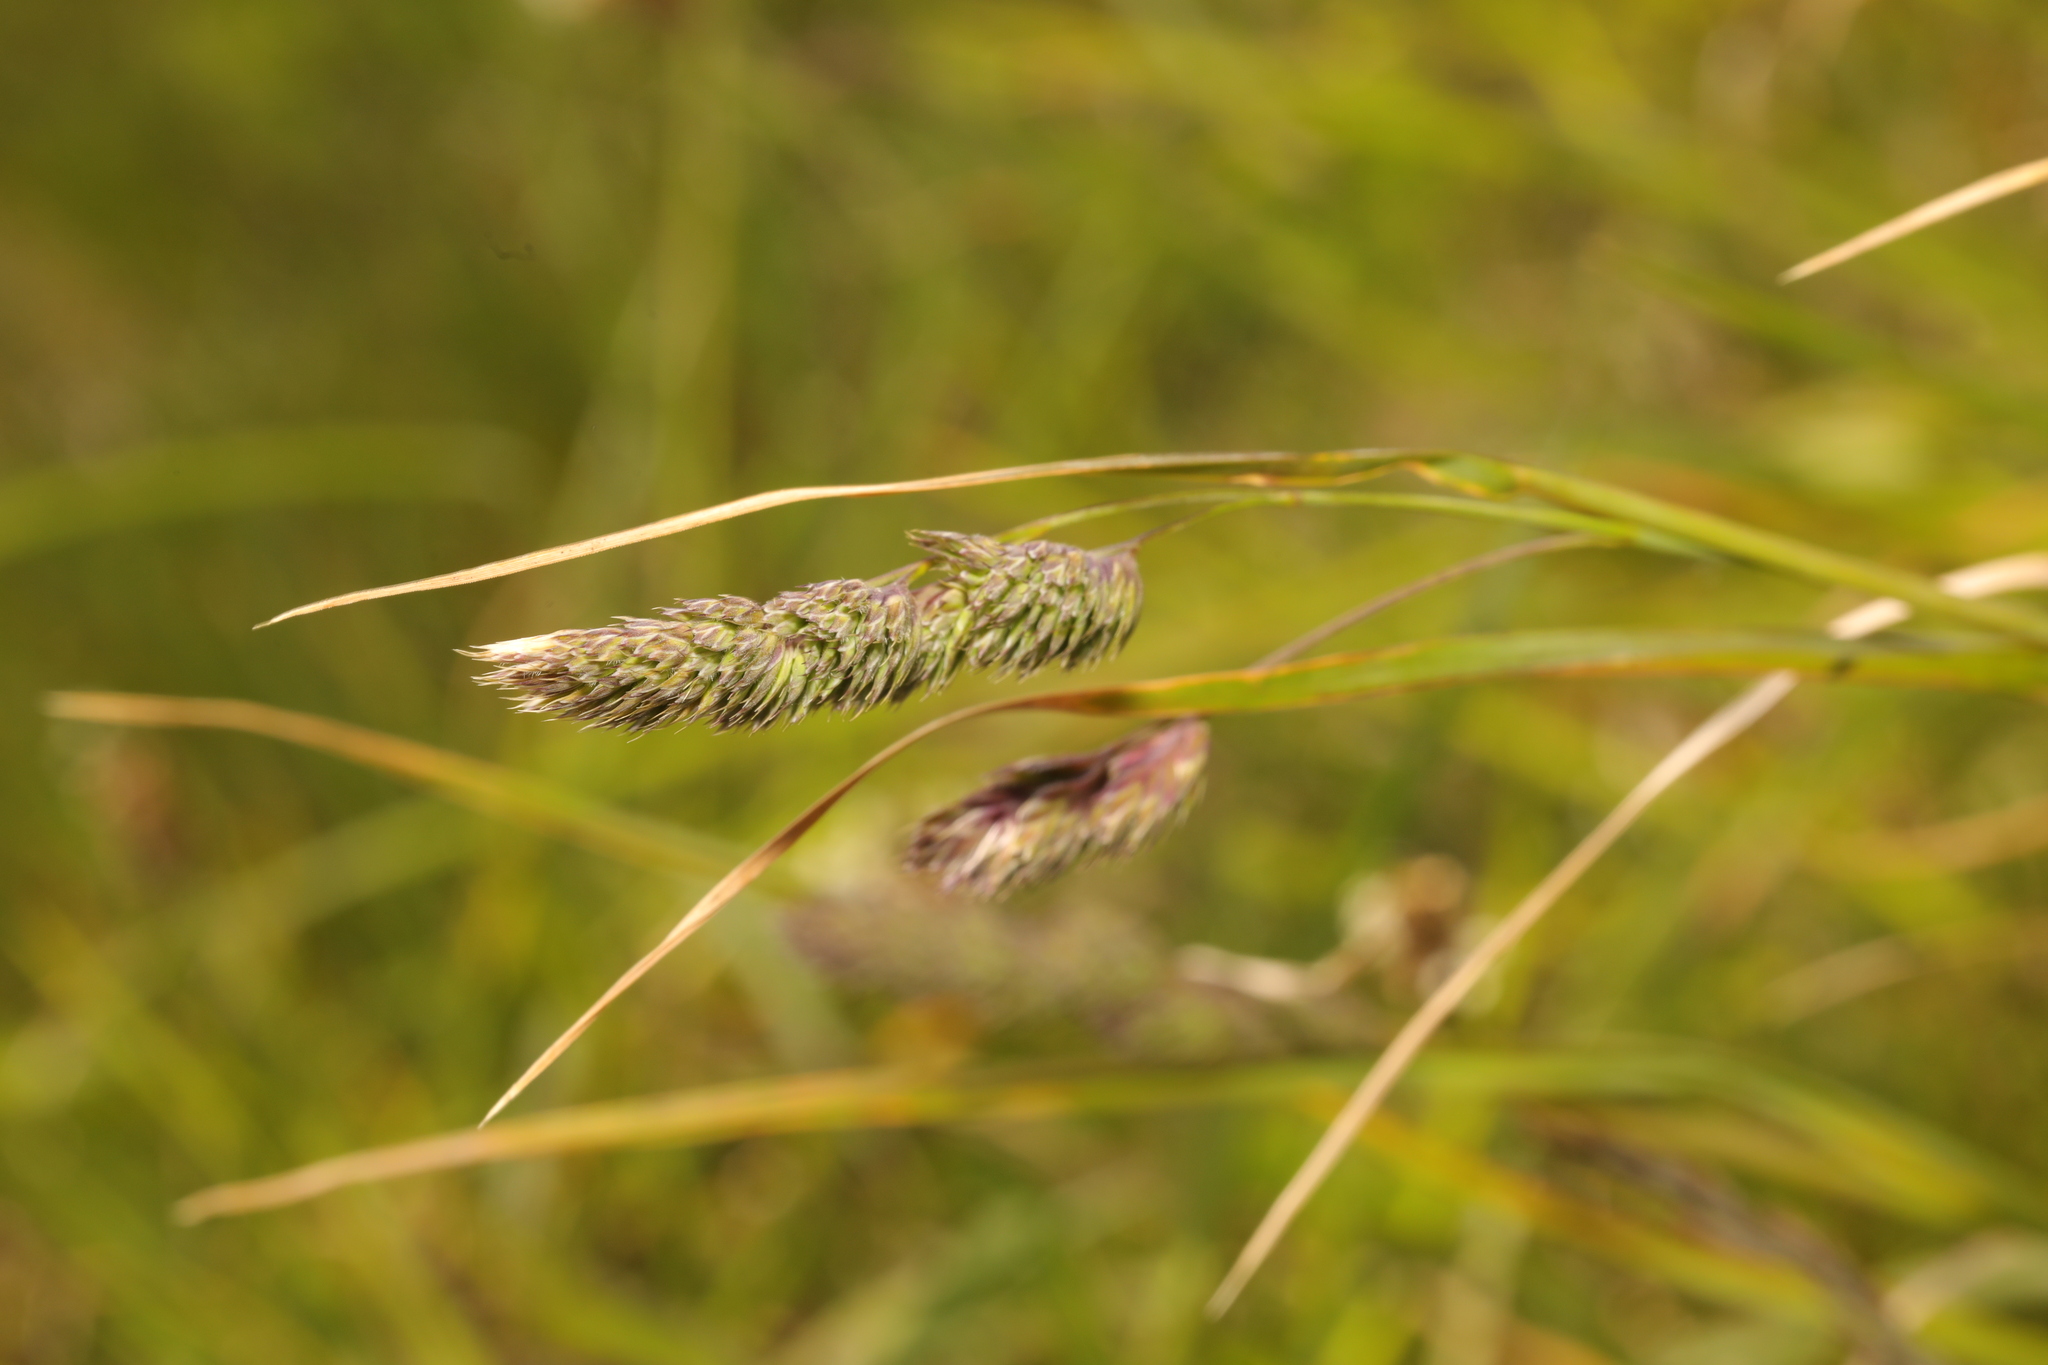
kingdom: Plantae
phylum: Tracheophyta
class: Liliopsida
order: Poales
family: Poaceae
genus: Dactylis
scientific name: Dactylis glomerata
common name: Orchardgrass
